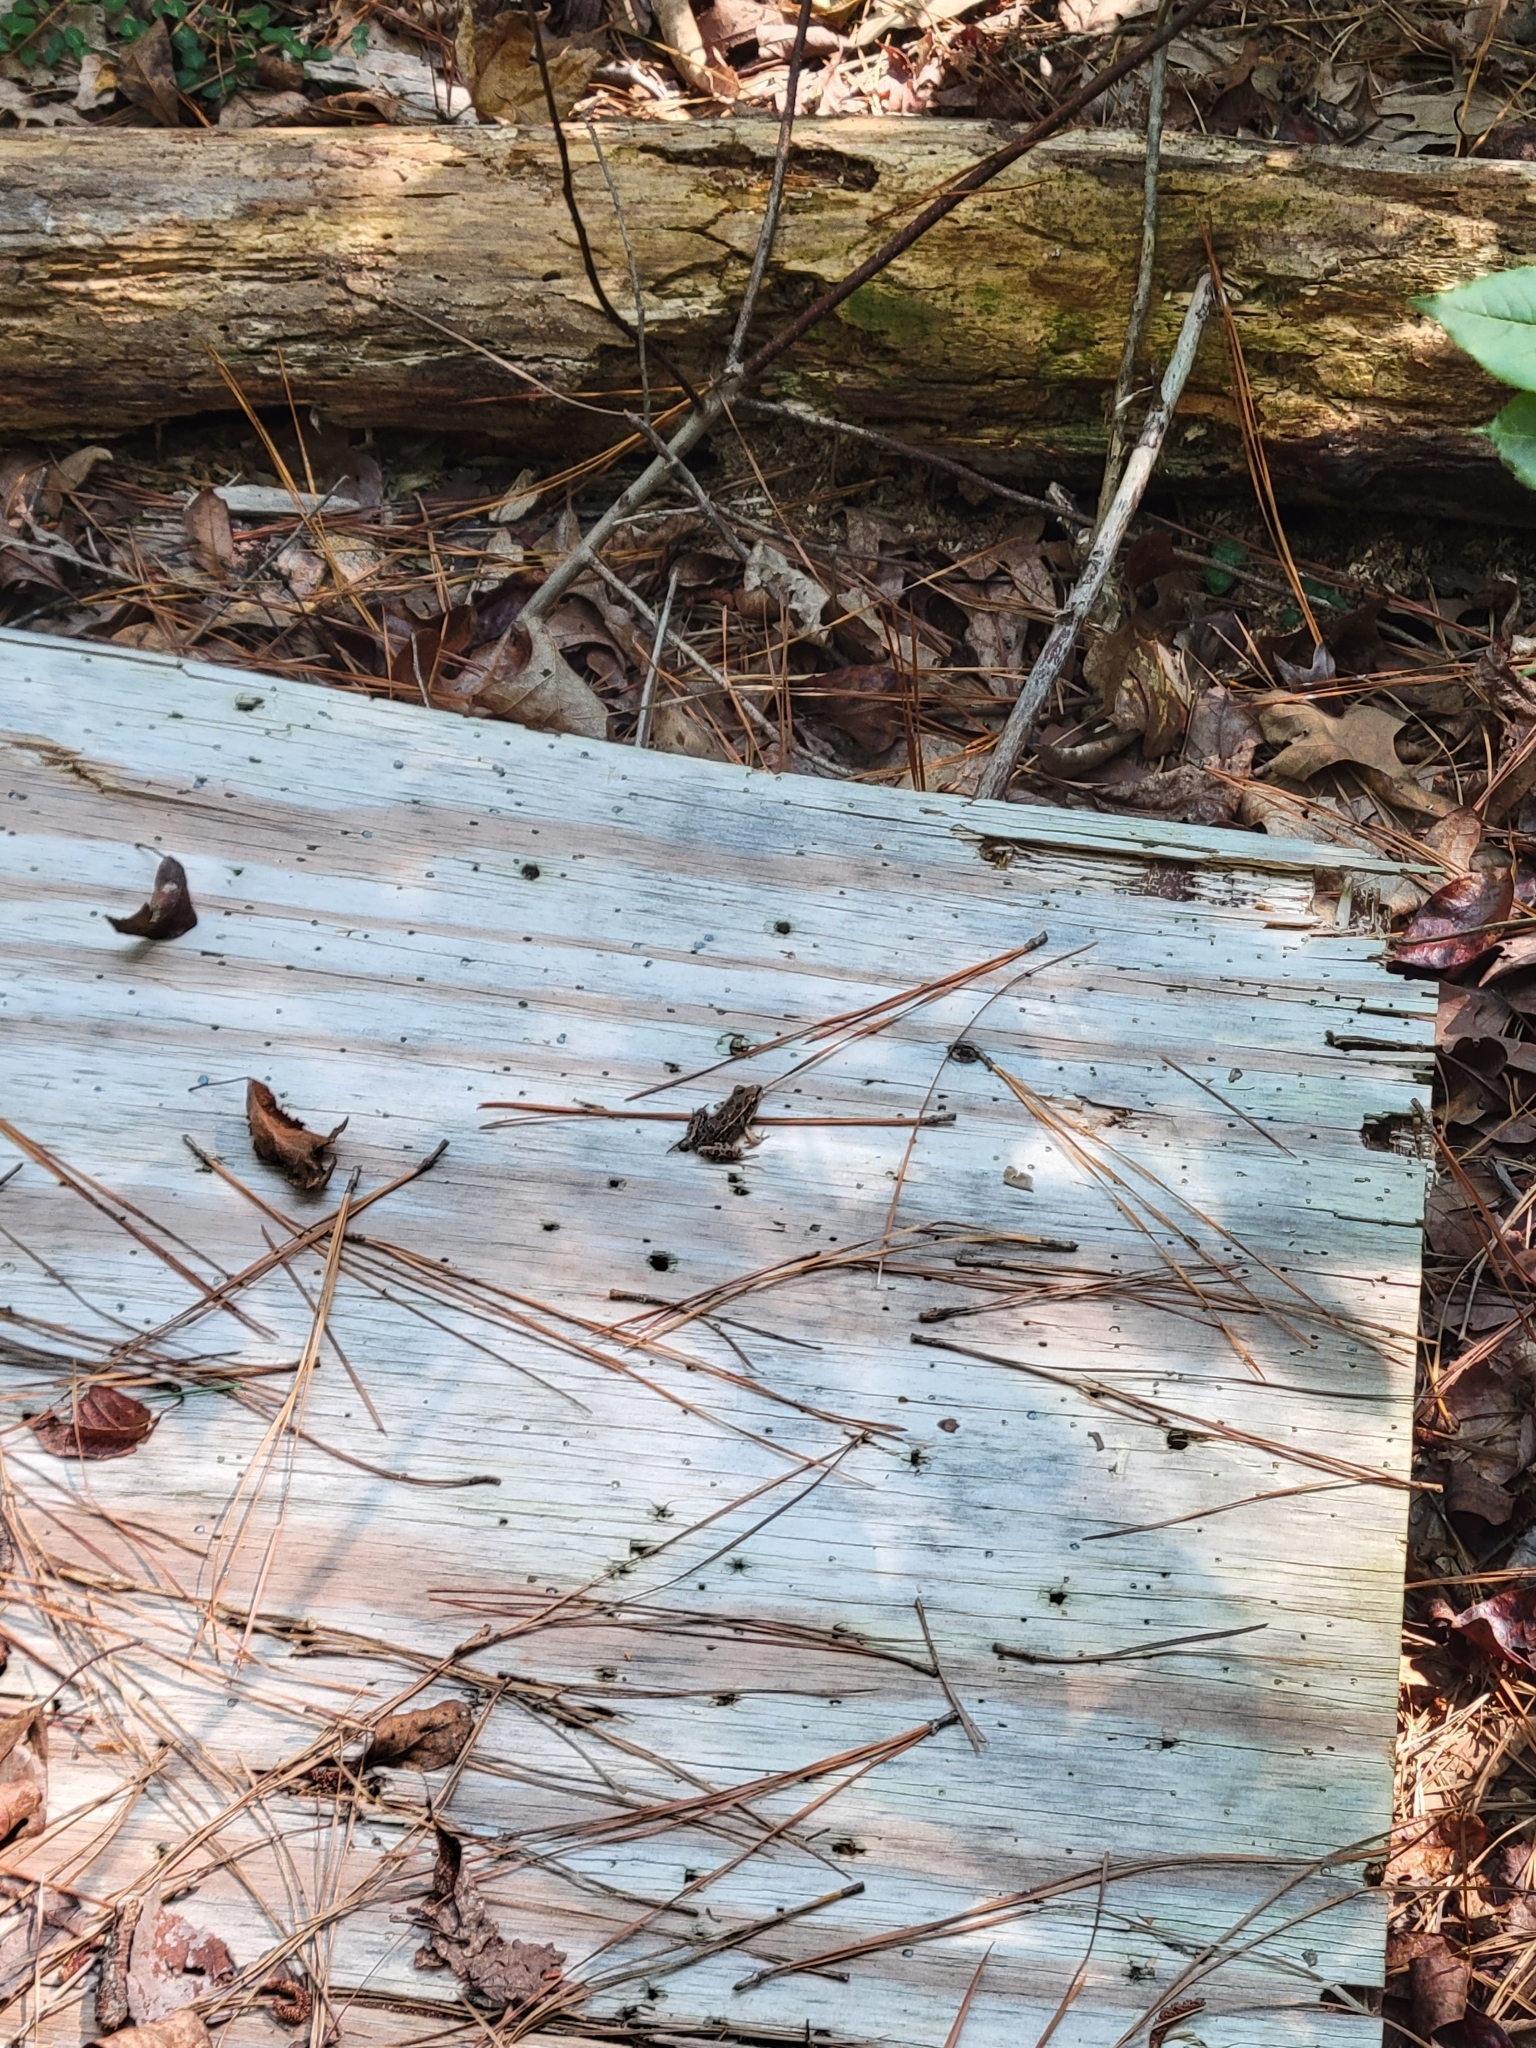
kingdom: Animalia
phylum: Chordata
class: Amphibia
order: Anura
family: Ranidae
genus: Lithobates
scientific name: Lithobates sphenocephalus
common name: Southern leopard frog
